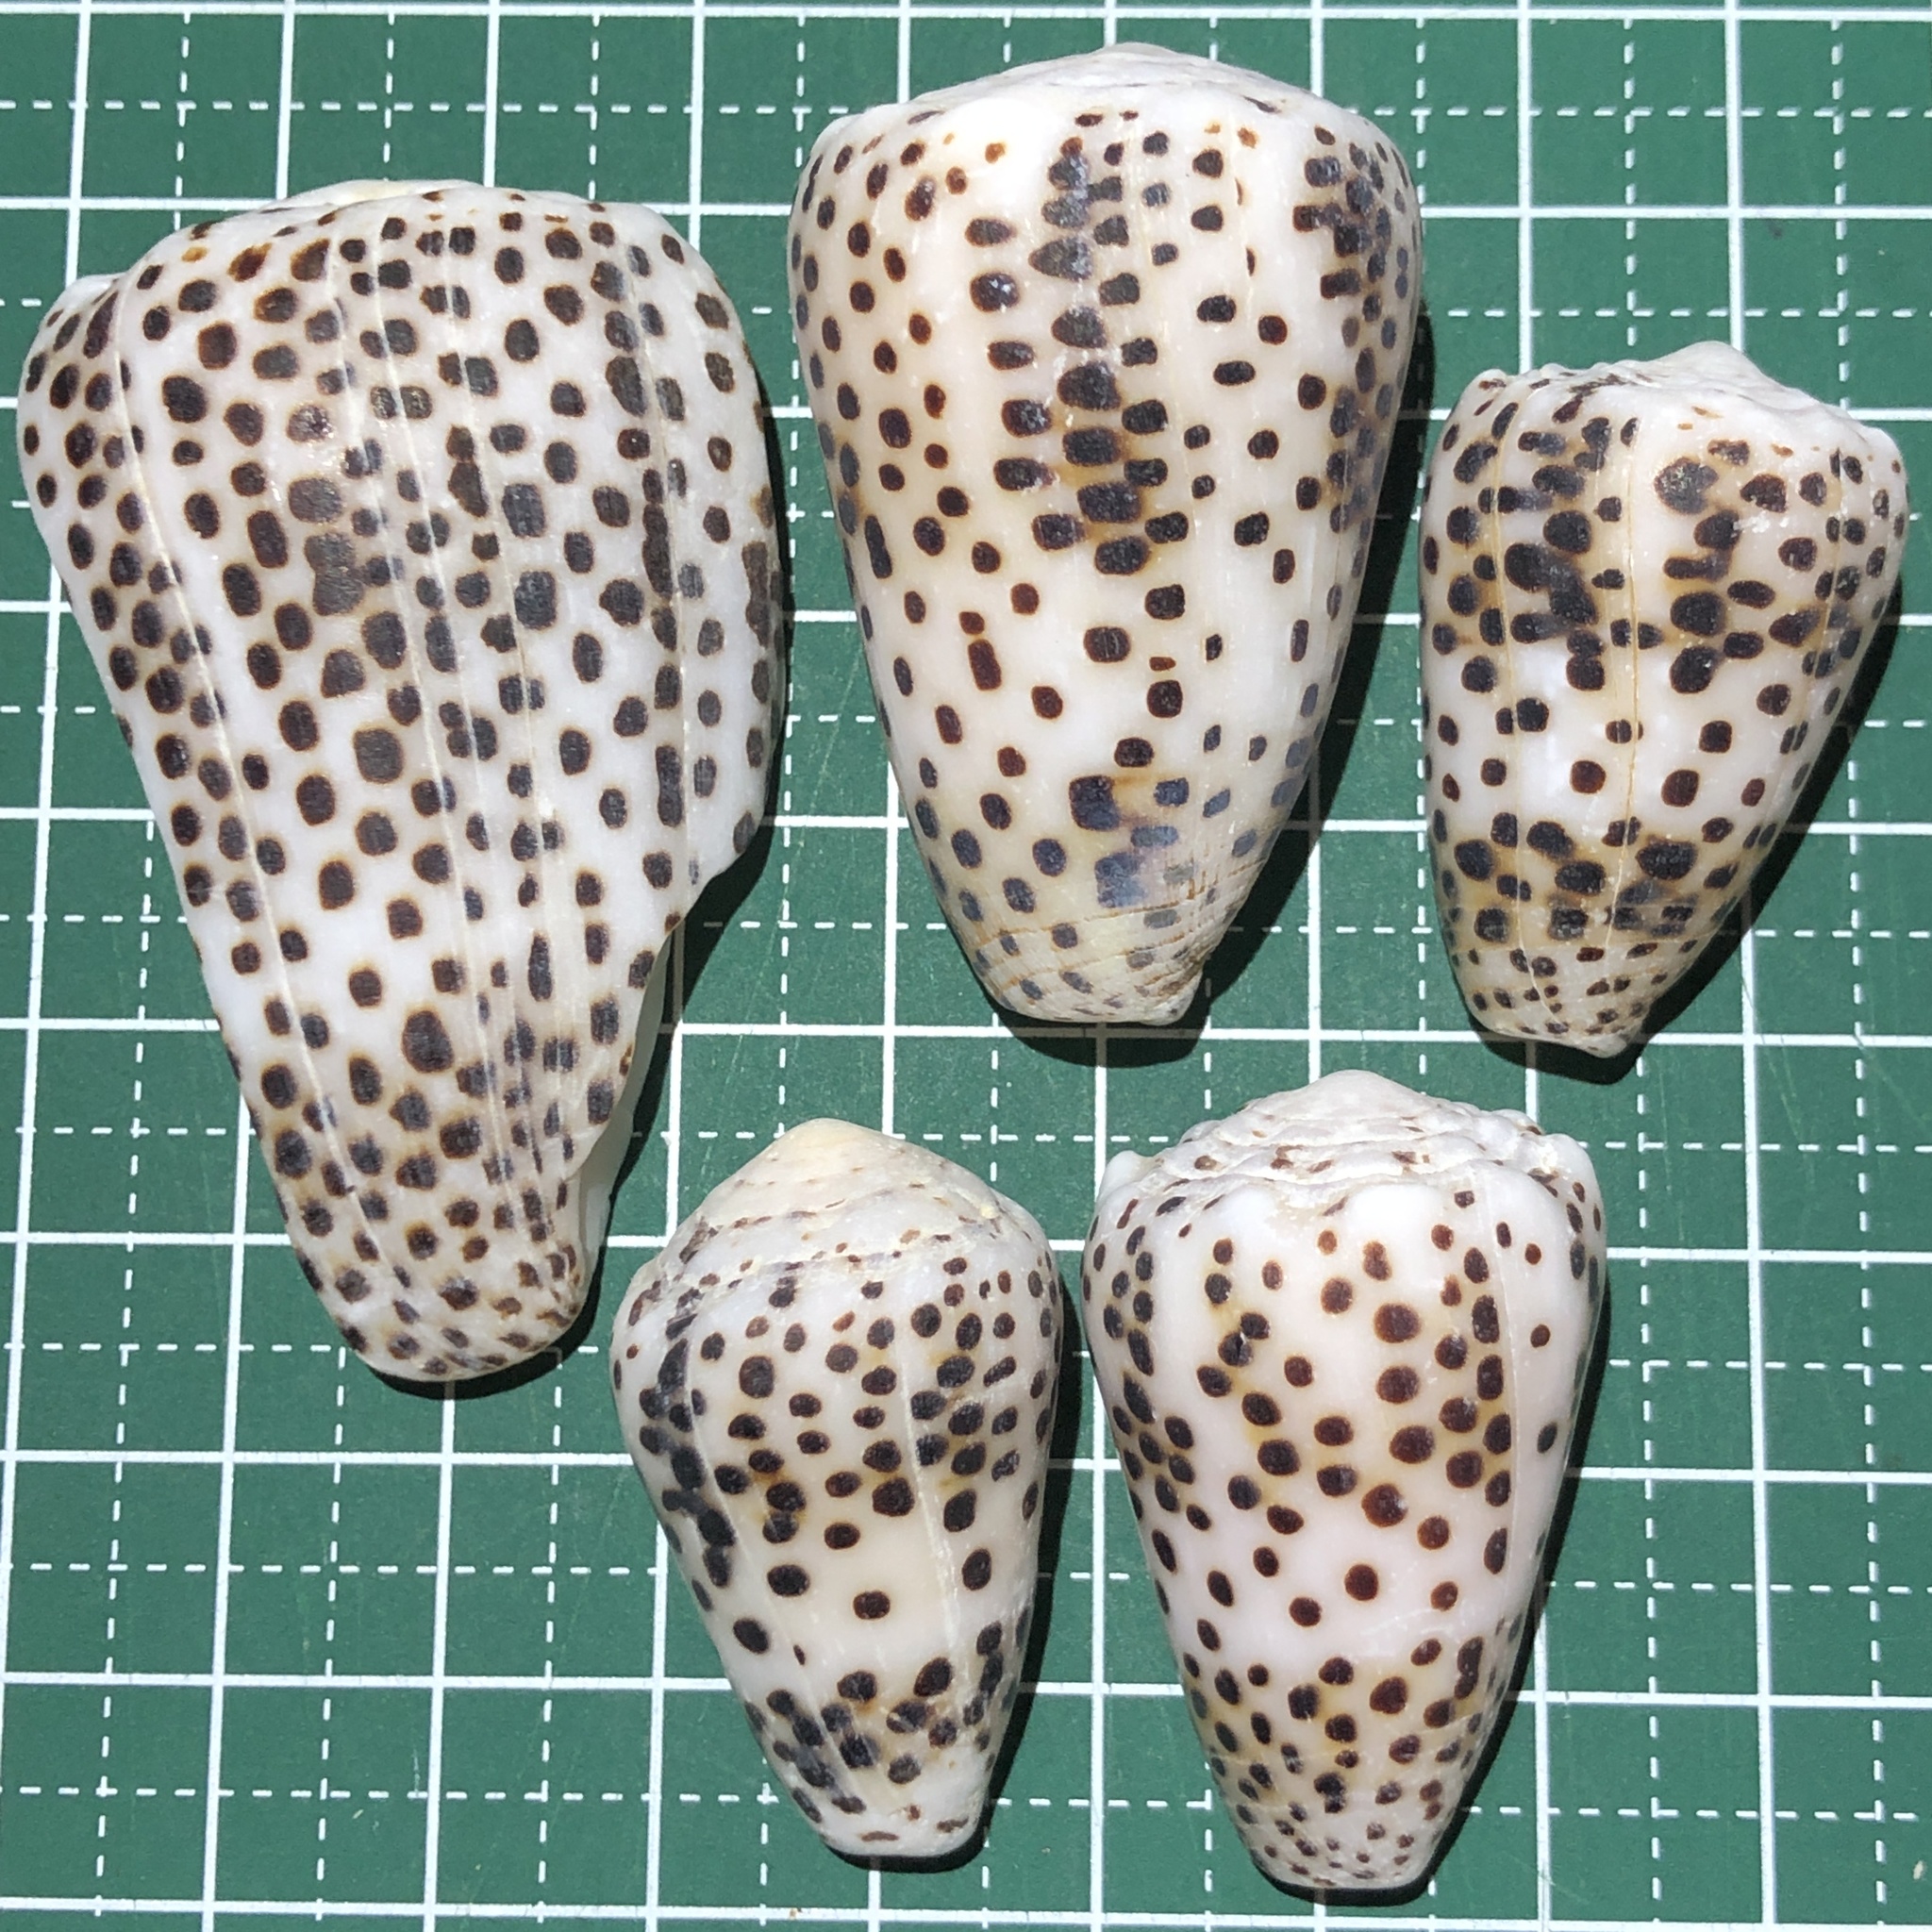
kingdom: Animalia
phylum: Mollusca
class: Gastropoda
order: Neogastropoda
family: Conidae
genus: Conus
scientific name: Conus pulicarius
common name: Flea-bite cone
